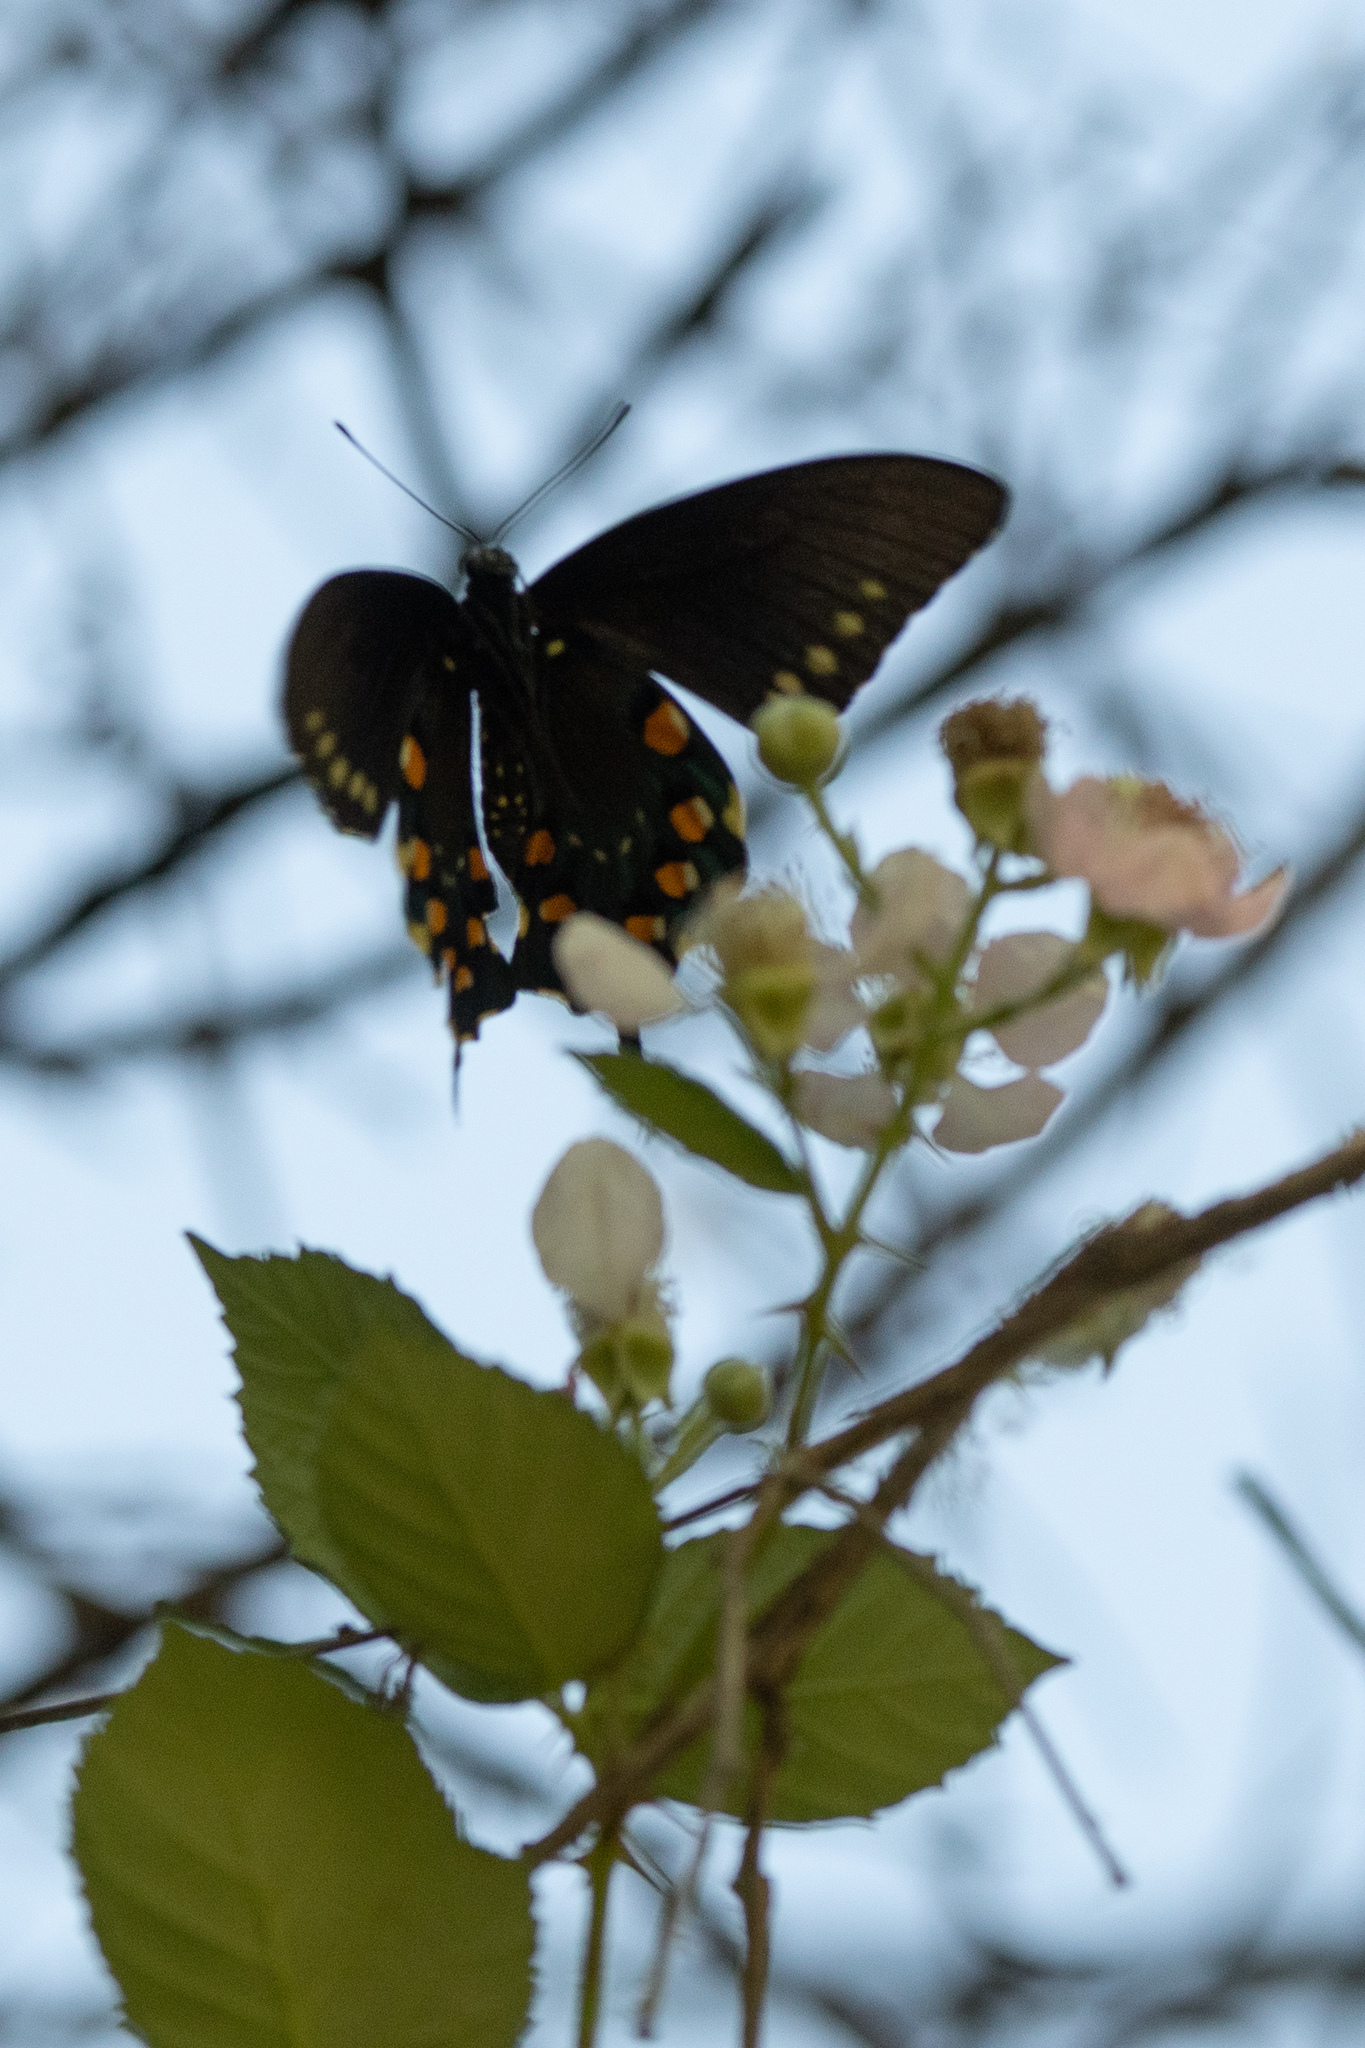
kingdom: Animalia
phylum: Arthropoda
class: Insecta
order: Lepidoptera
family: Papilionidae
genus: Battus
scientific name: Battus philenor
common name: Pipevine swallowtail
